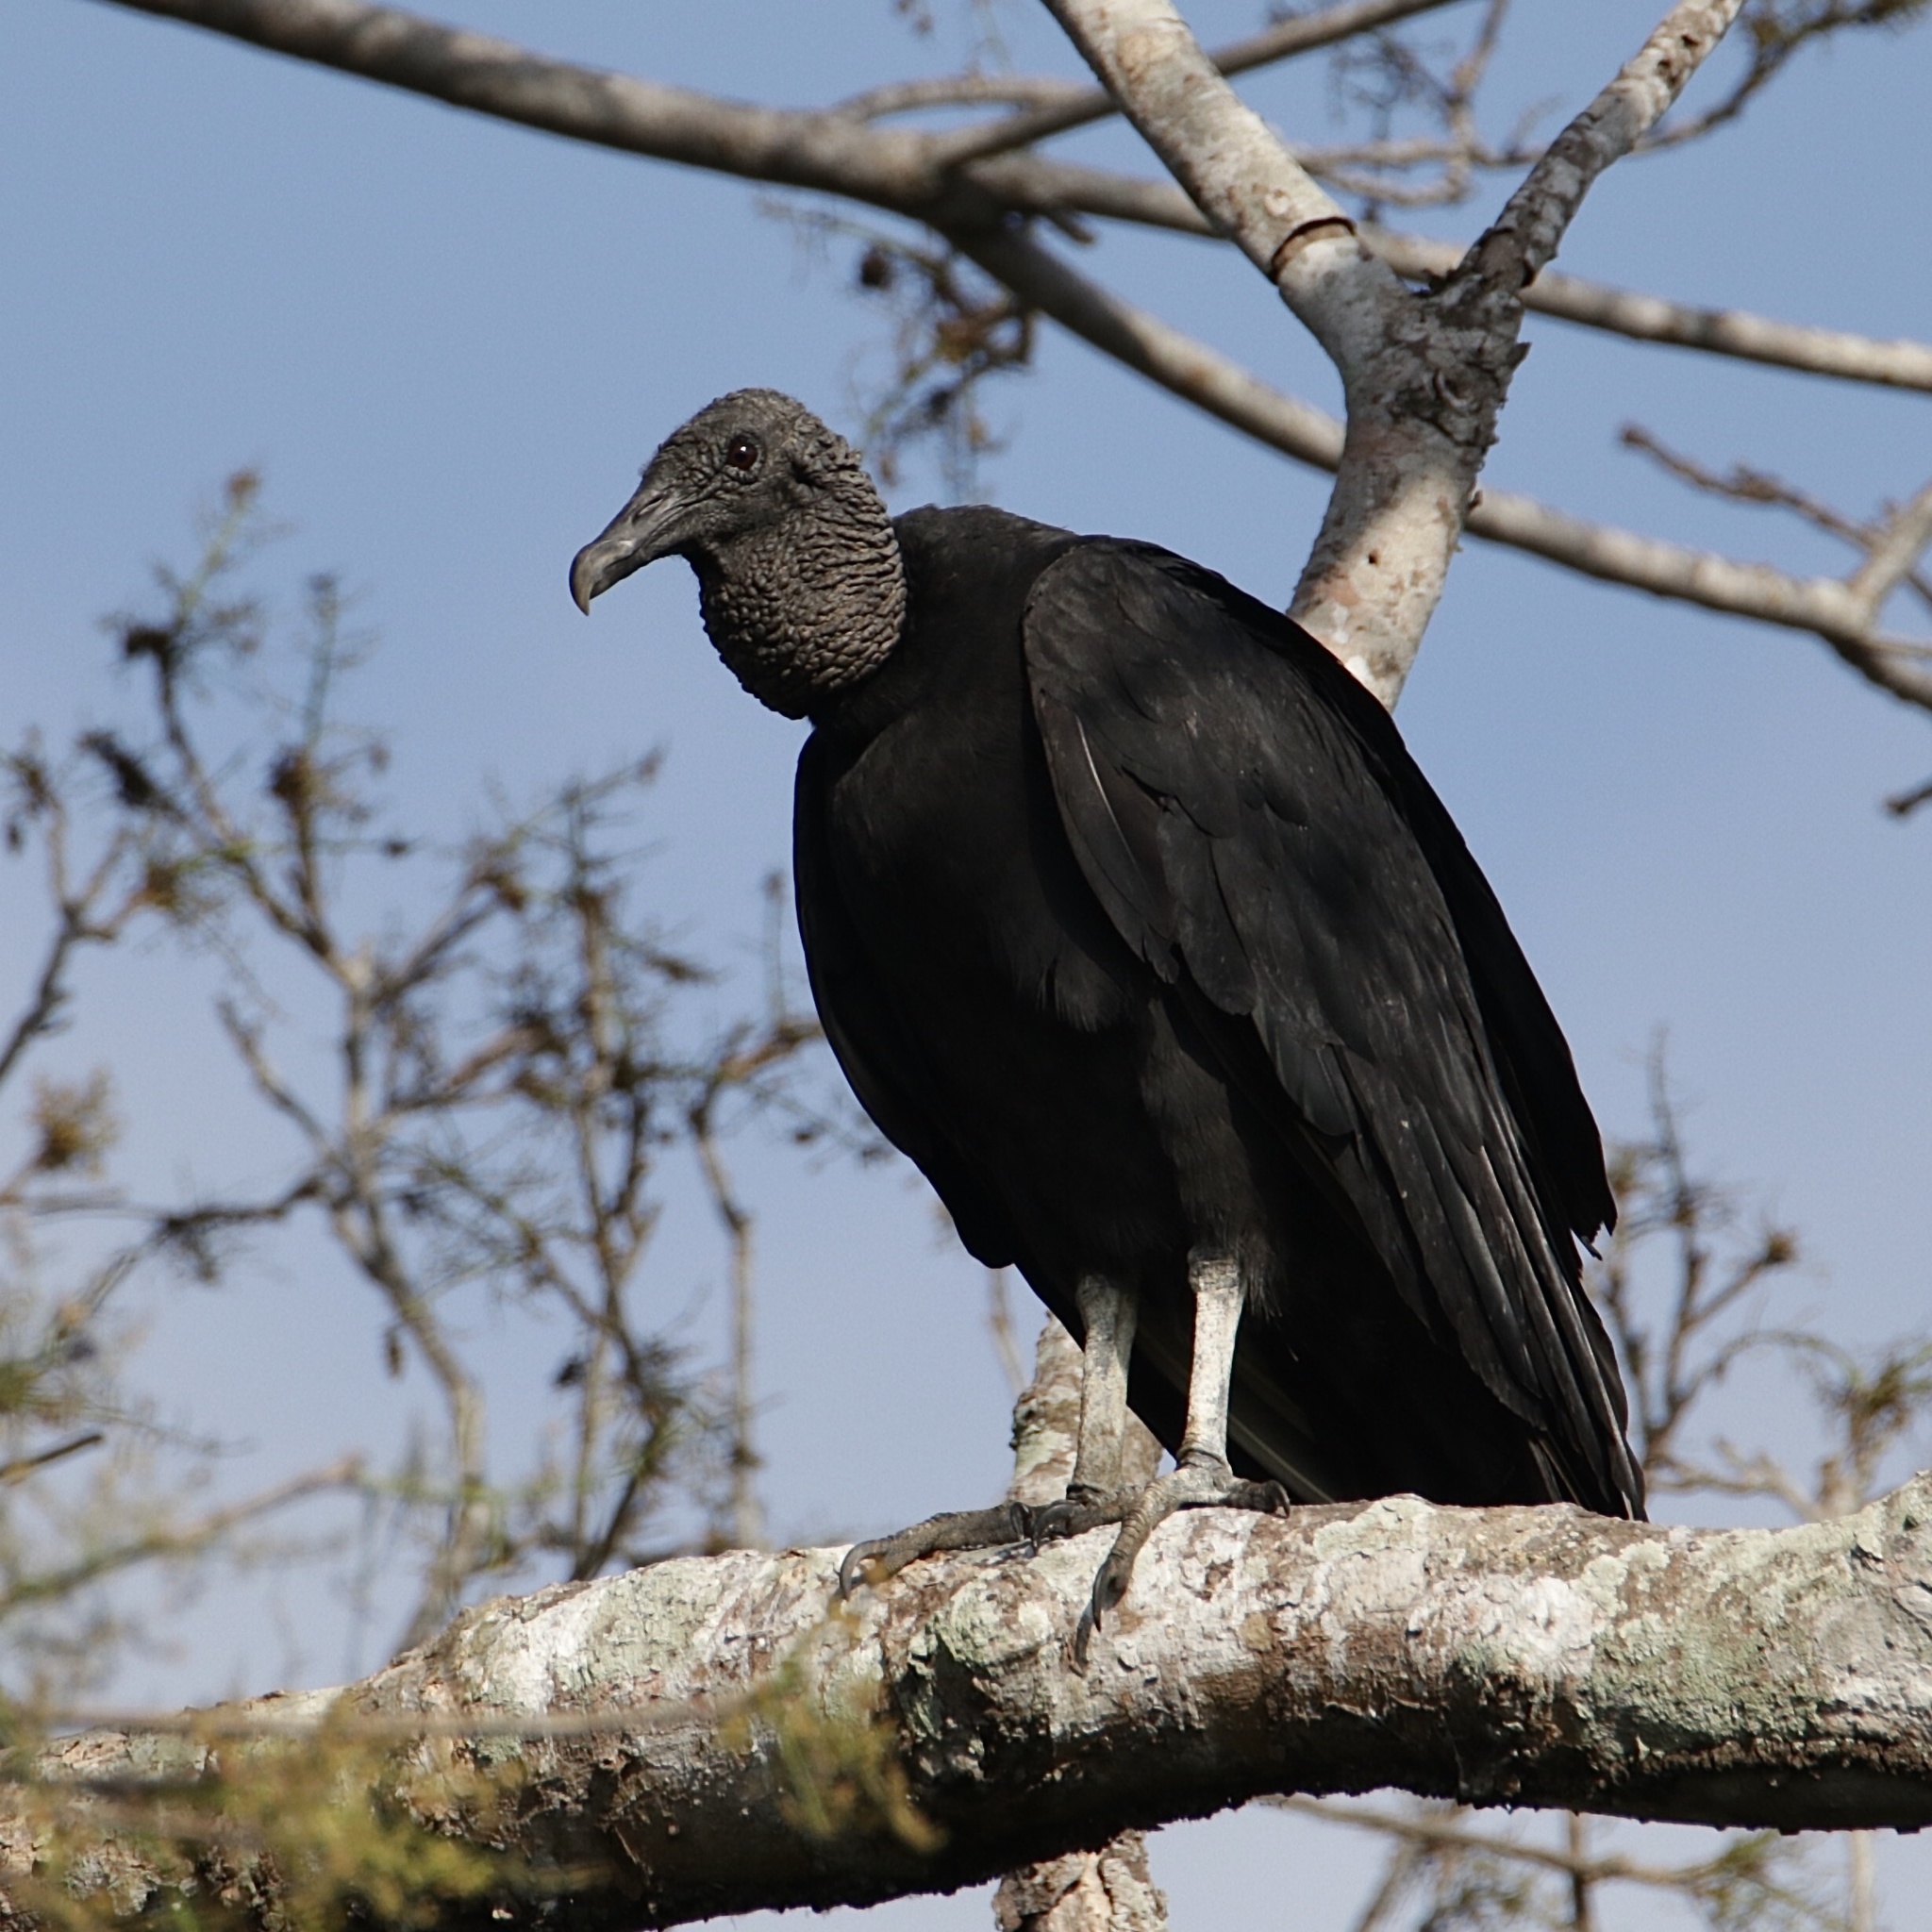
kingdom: Animalia
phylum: Chordata
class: Aves
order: Accipitriformes
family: Cathartidae
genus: Coragyps
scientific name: Coragyps atratus
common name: Black vulture
